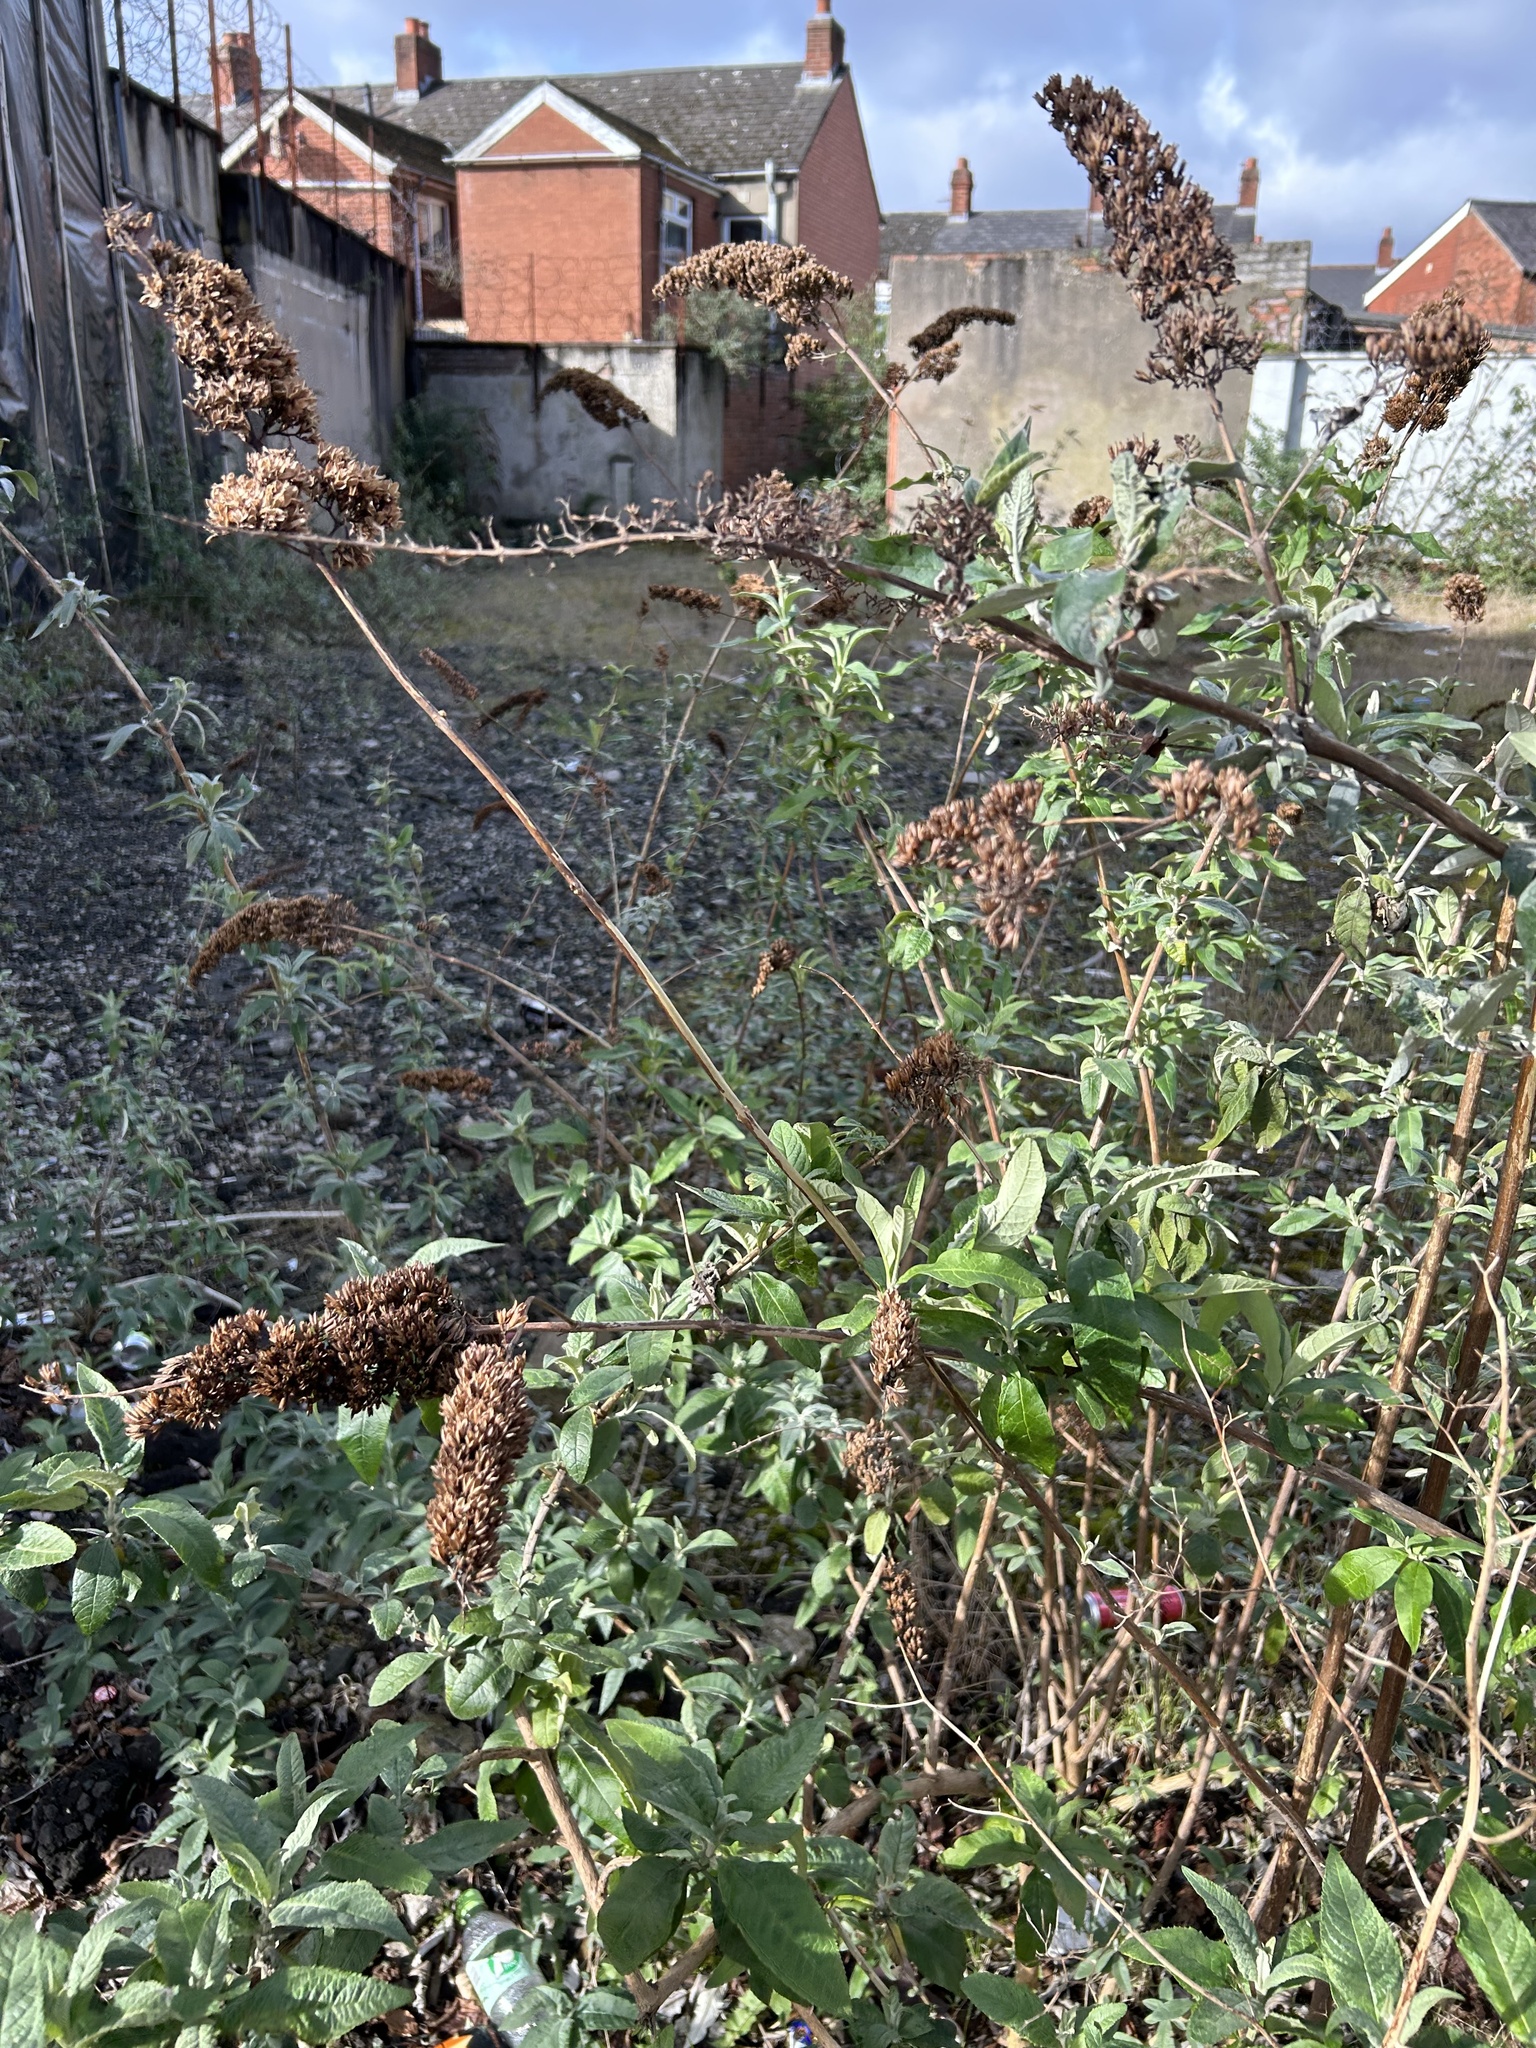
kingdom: Plantae
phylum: Tracheophyta
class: Magnoliopsida
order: Lamiales
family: Scrophulariaceae
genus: Buddleja
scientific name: Buddleja davidii
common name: Butterfly-bush
